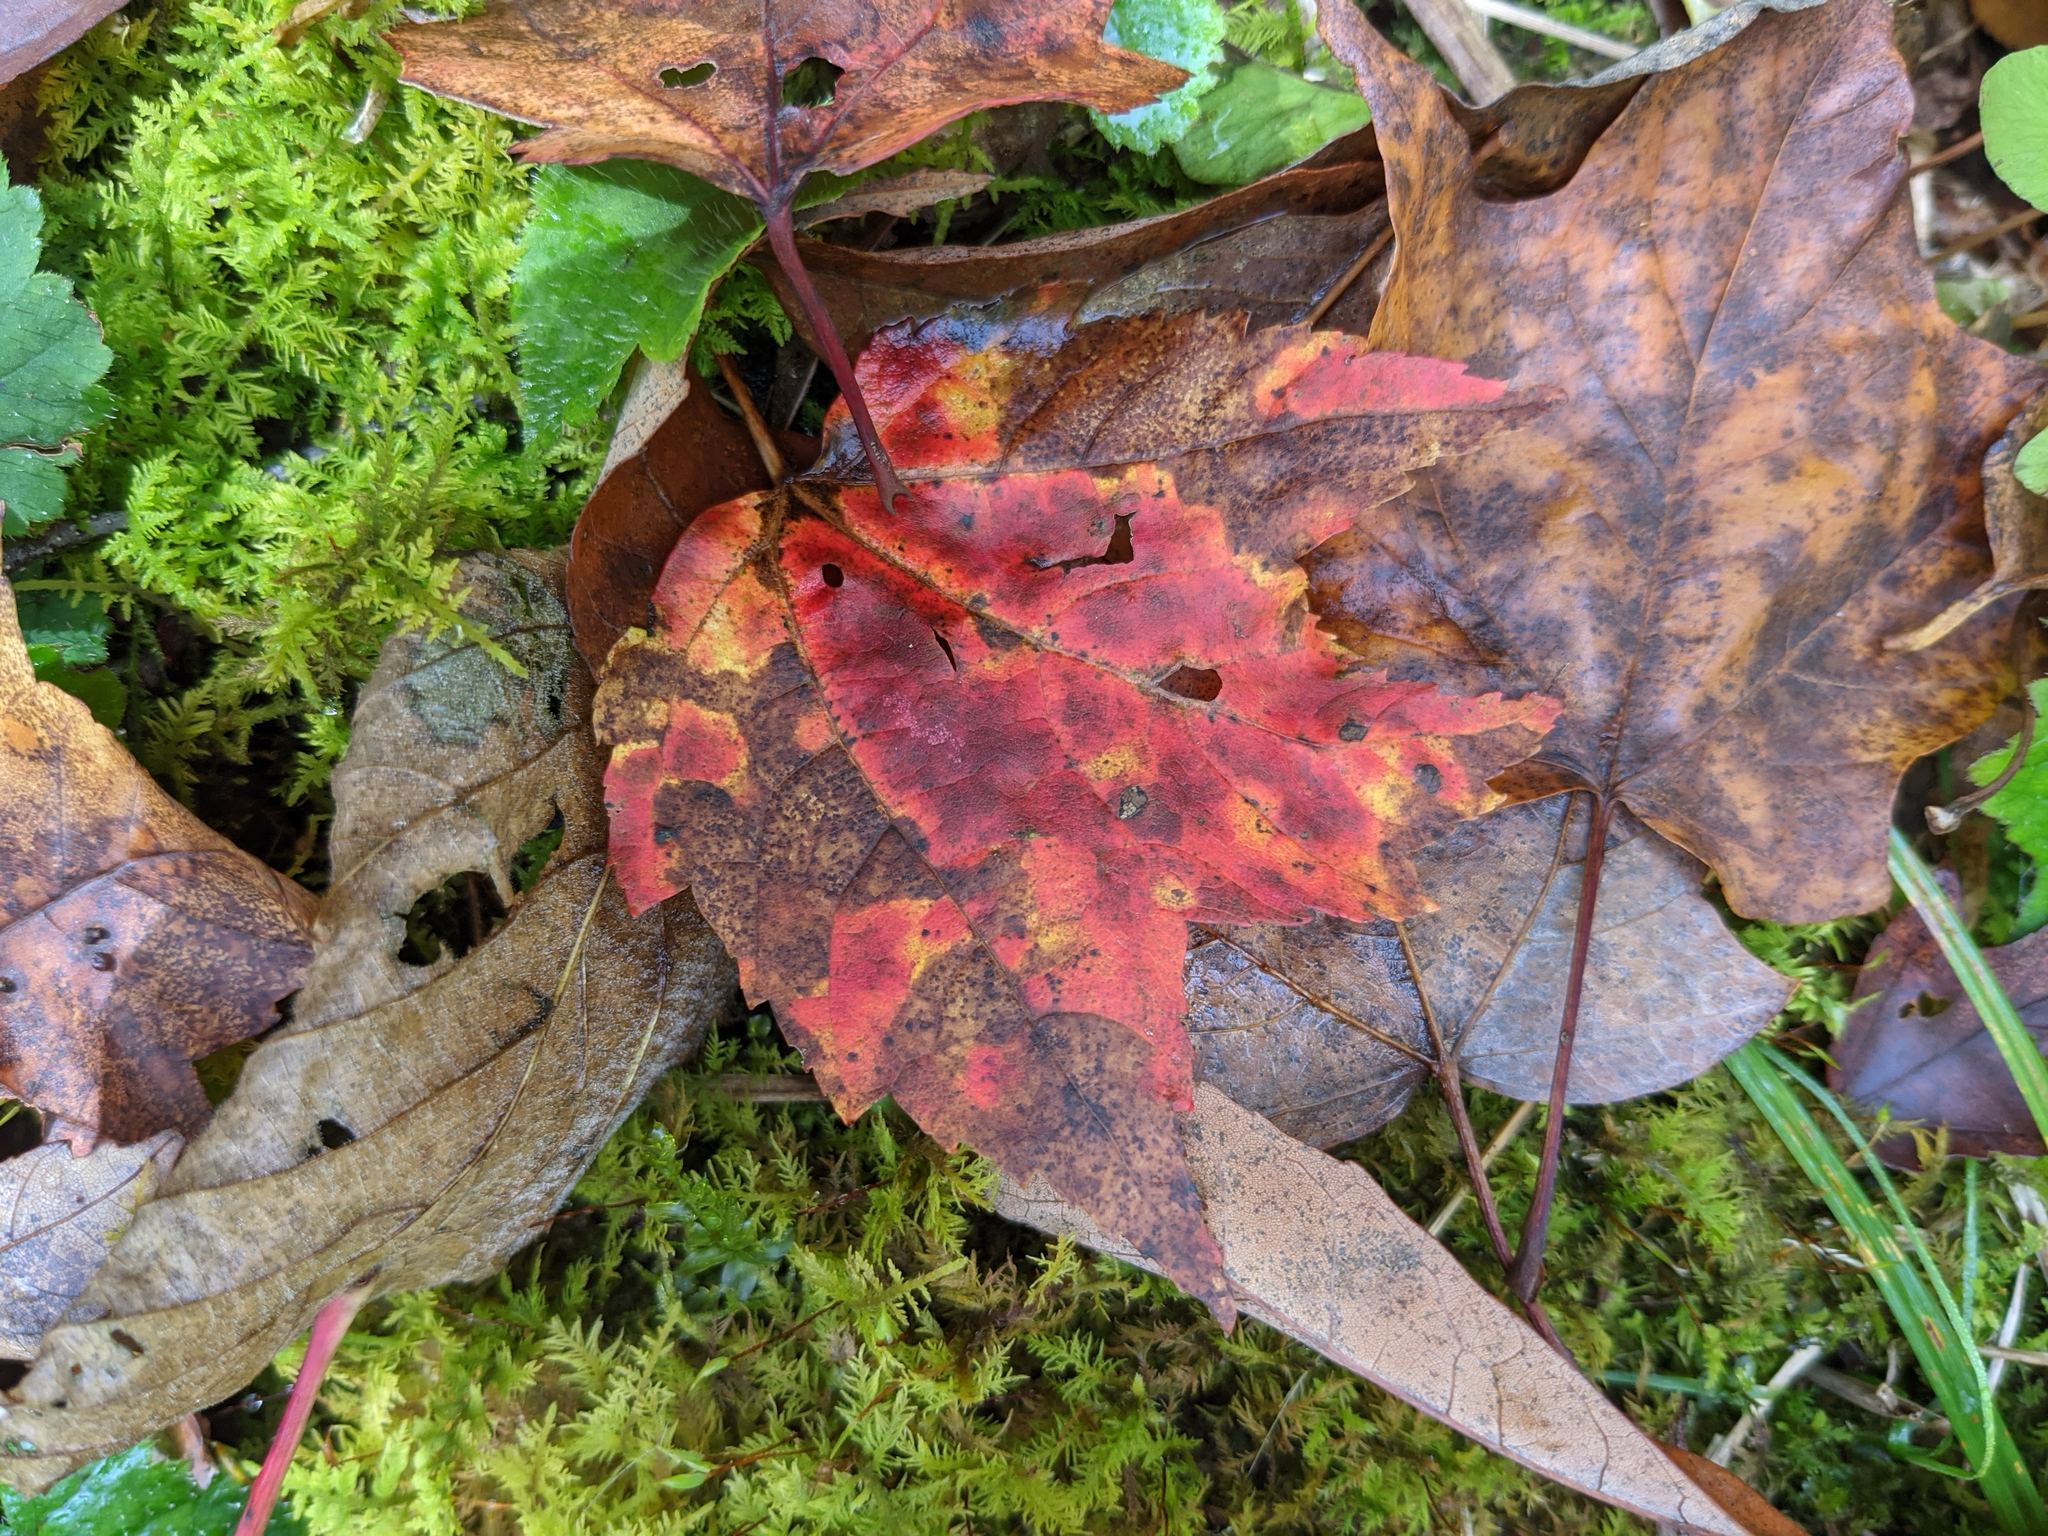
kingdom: Plantae
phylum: Tracheophyta
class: Magnoliopsida
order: Sapindales
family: Sapindaceae
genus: Acer
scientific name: Acer rubrum
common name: Red maple
